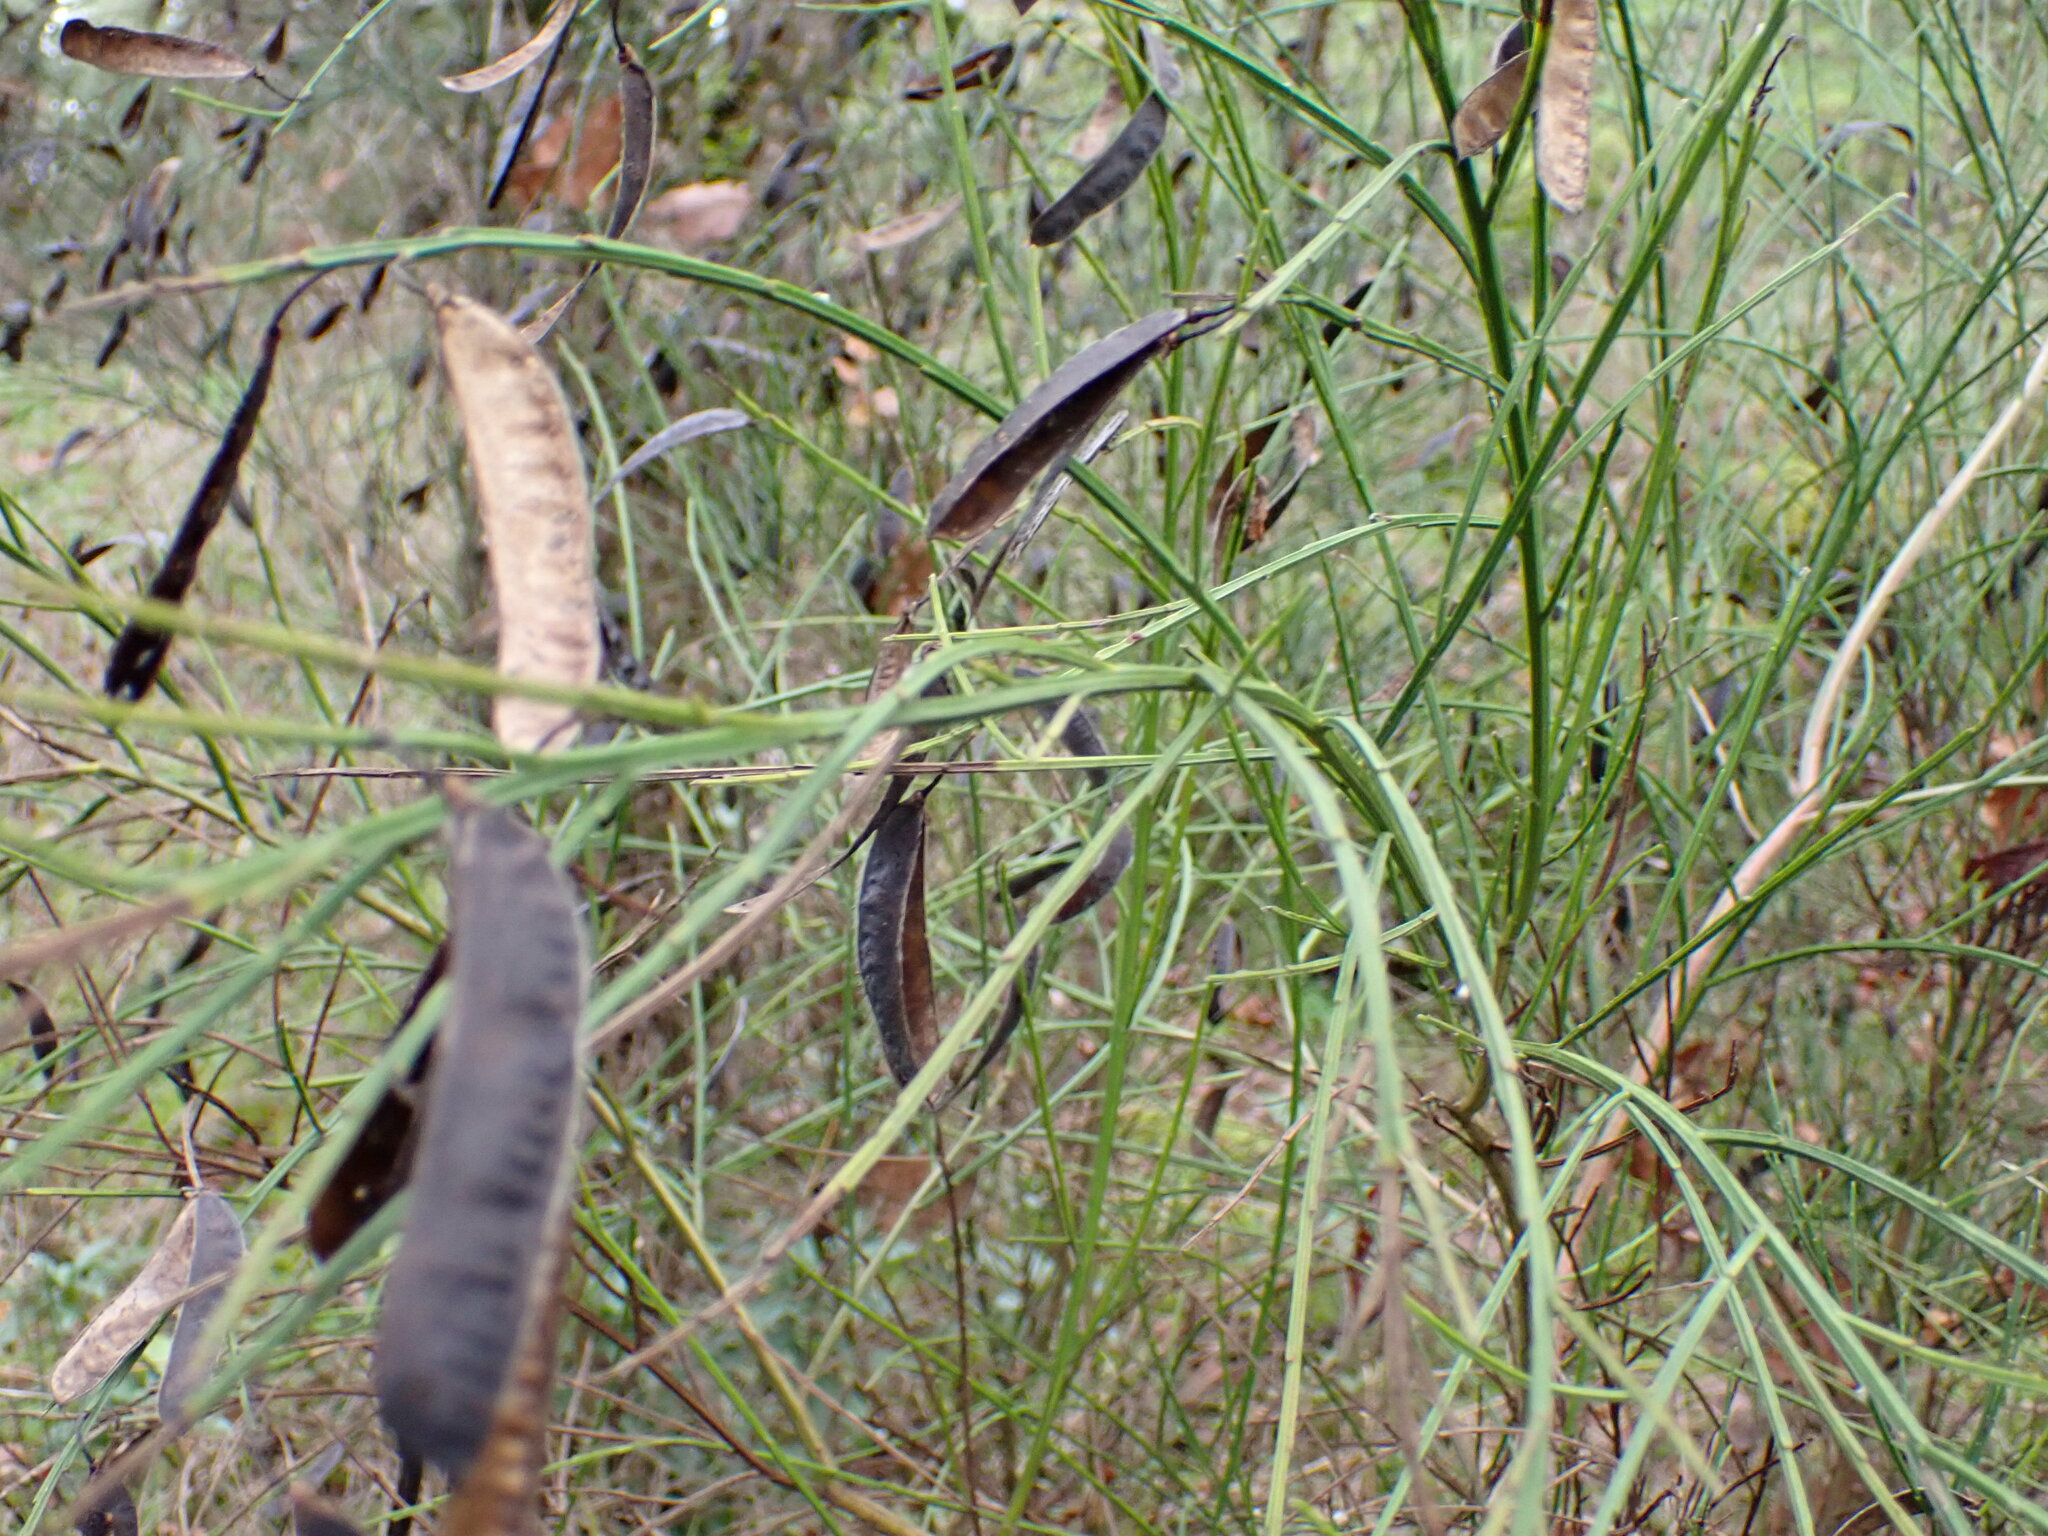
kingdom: Plantae
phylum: Tracheophyta
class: Magnoliopsida
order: Fabales
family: Fabaceae
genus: Cytisus
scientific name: Cytisus scoparius
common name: Scotch broom
